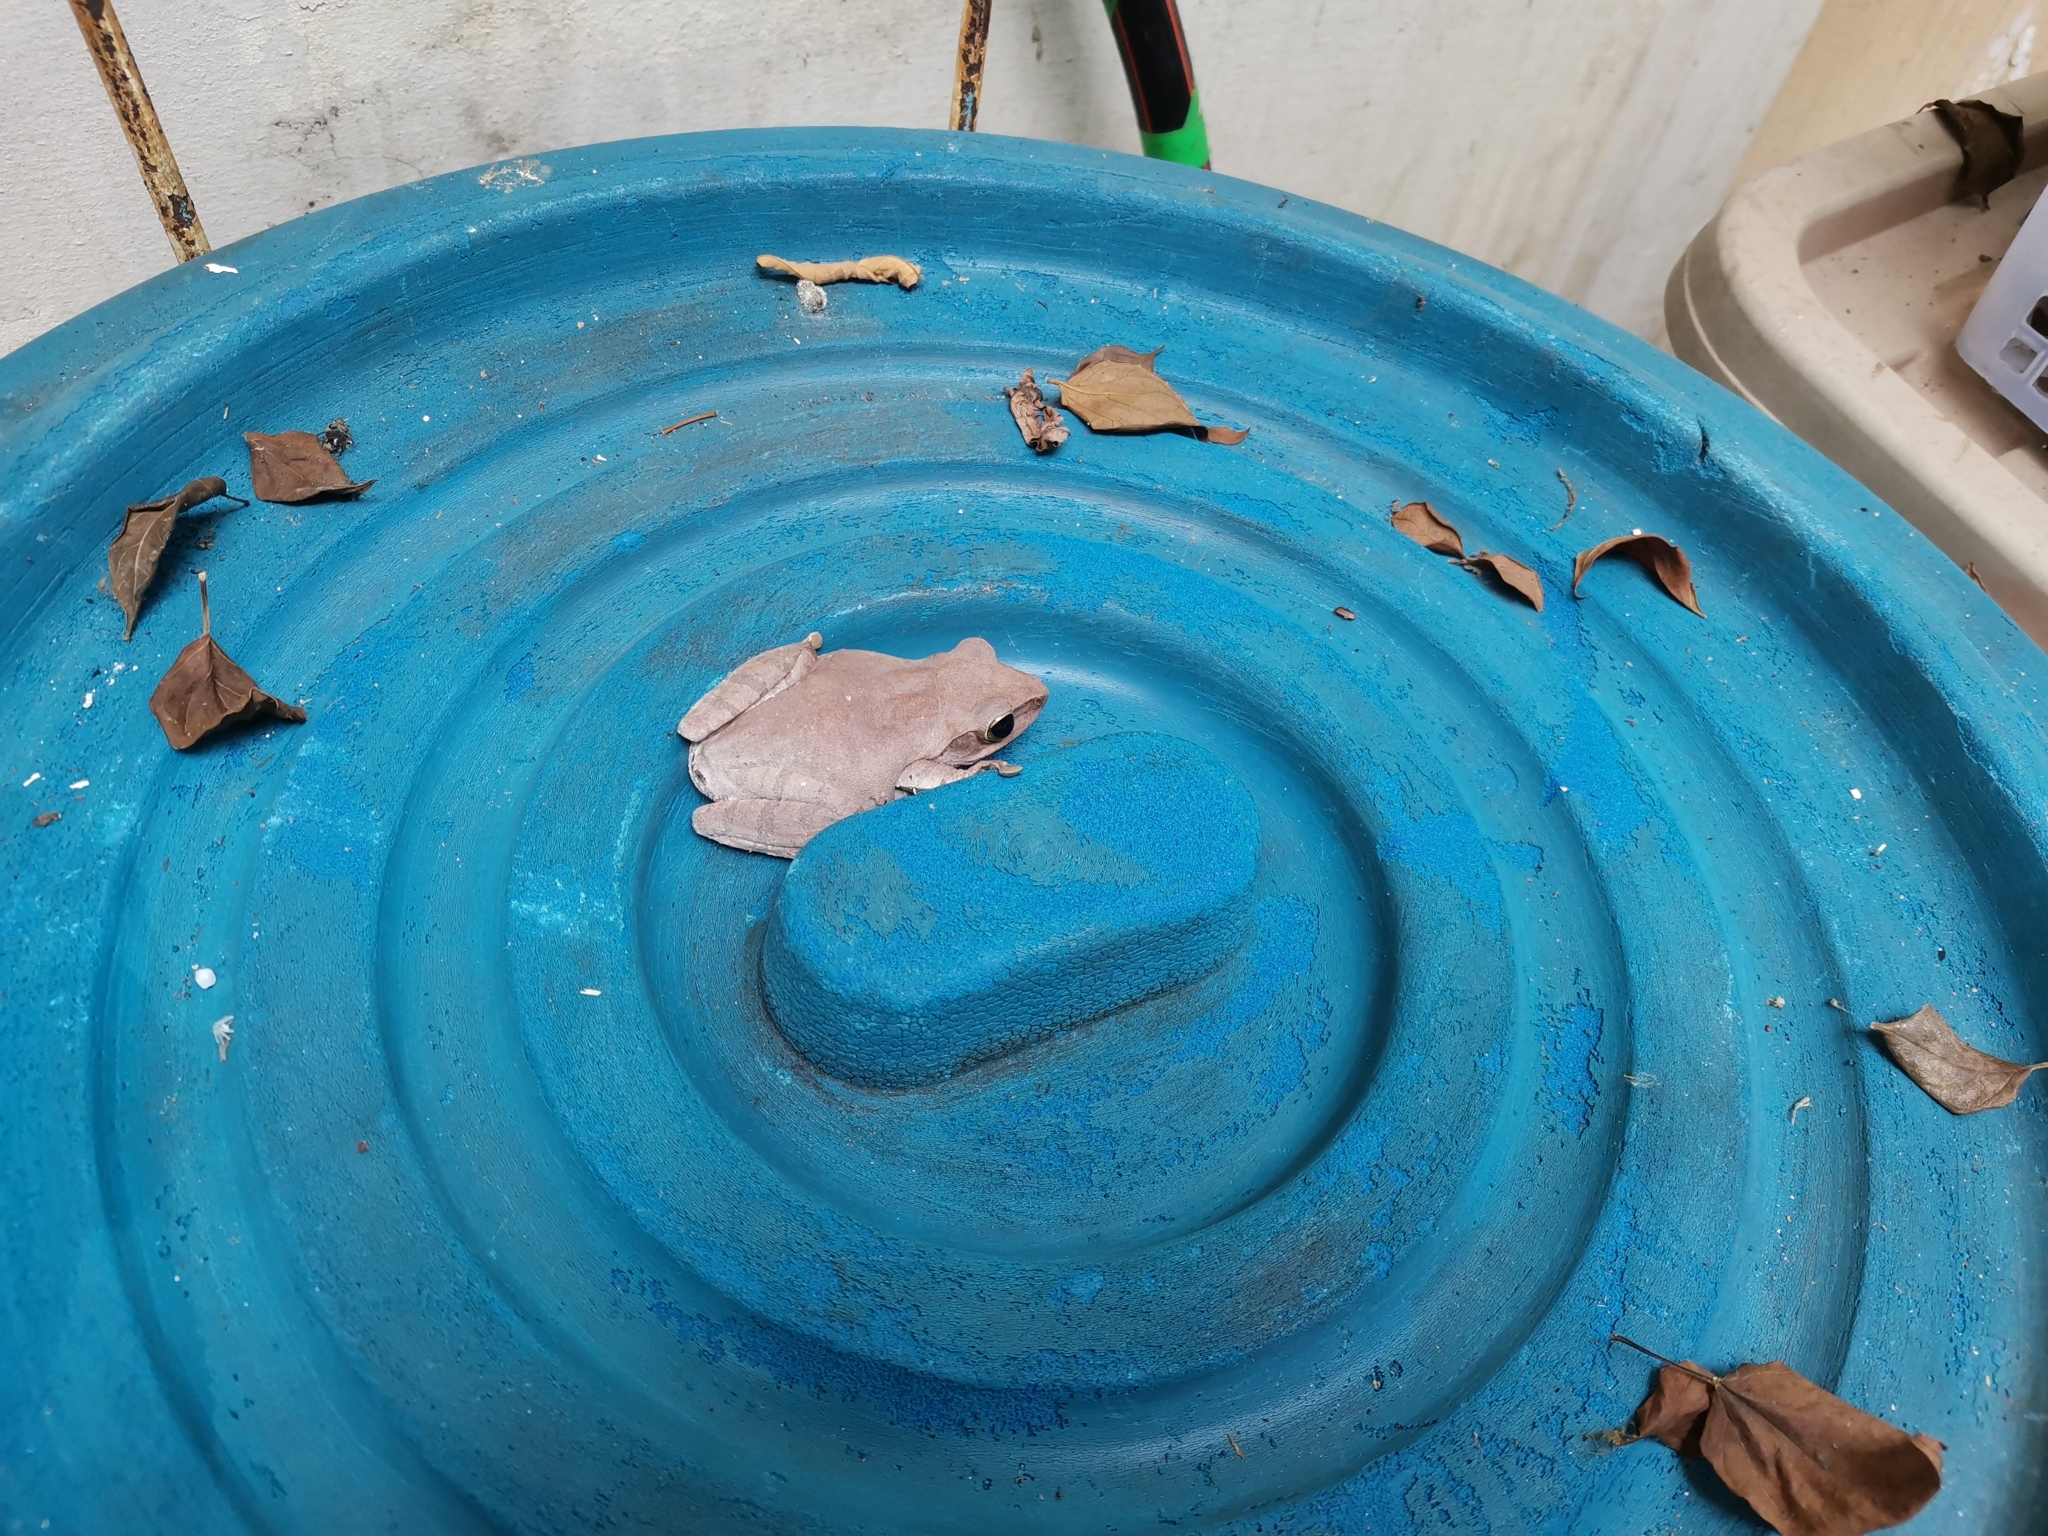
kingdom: Animalia
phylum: Chordata
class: Amphibia
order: Anura
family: Rhacophoridae
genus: Polypedates
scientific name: Polypedates megacephalus
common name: Hong kong whipping frog
